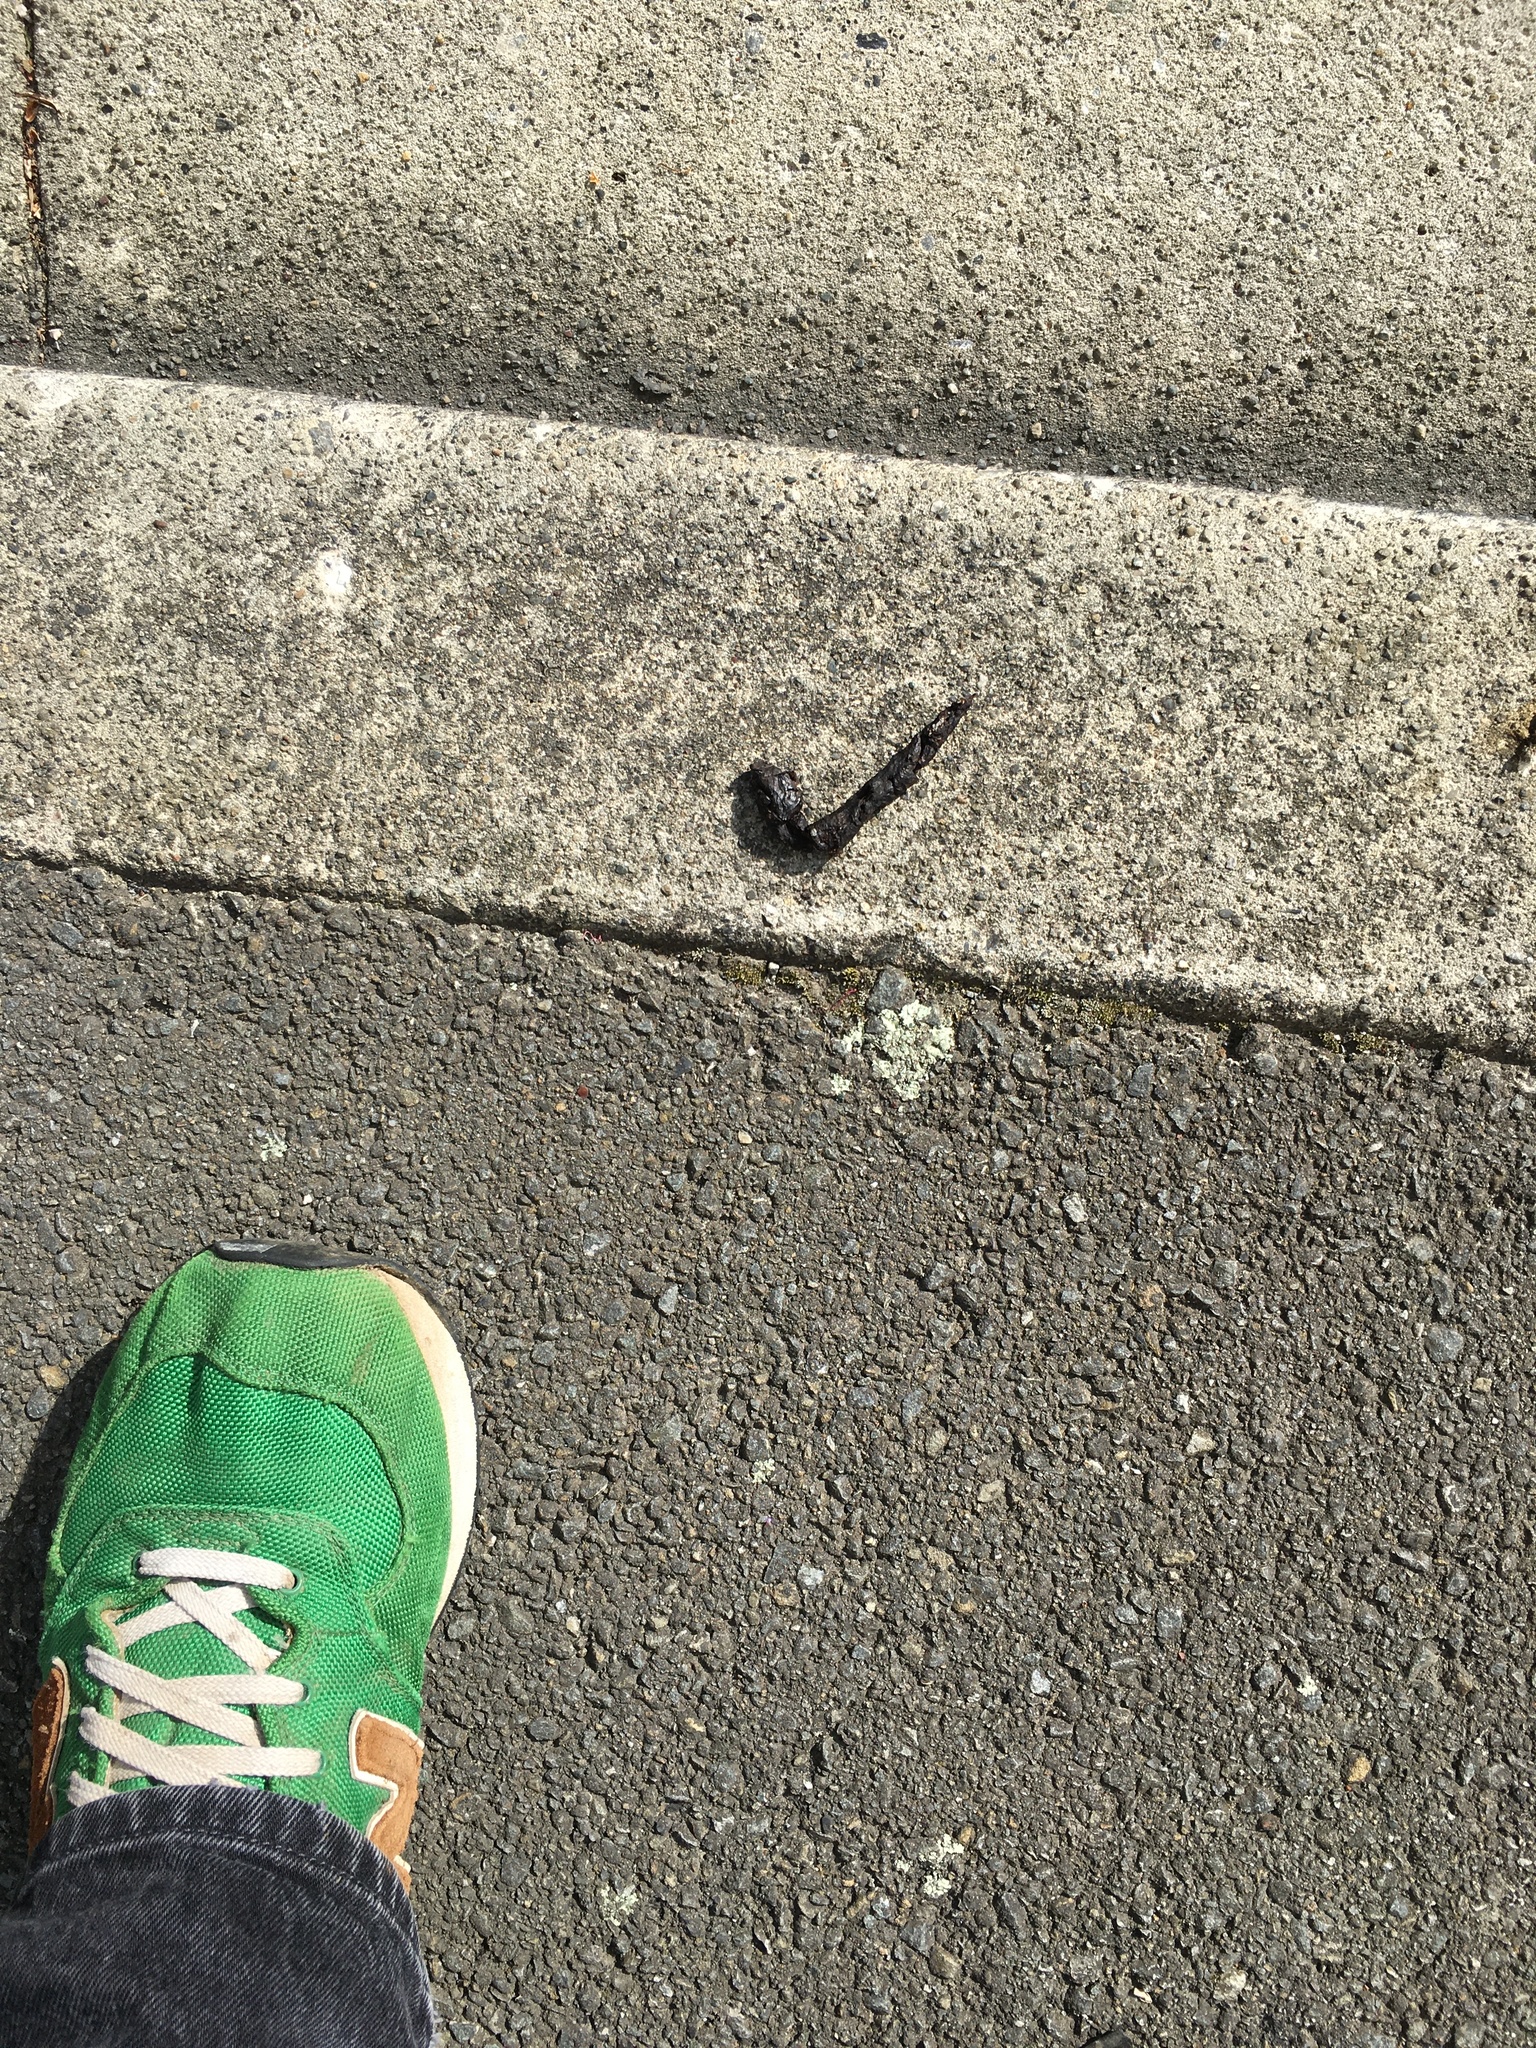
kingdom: Animalia
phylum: Chordata
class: Mammalia
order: Erinaceomorpha
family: Erinaceidae
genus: Erinaceus
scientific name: Erinaceus europaeus
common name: West european hedgehog
